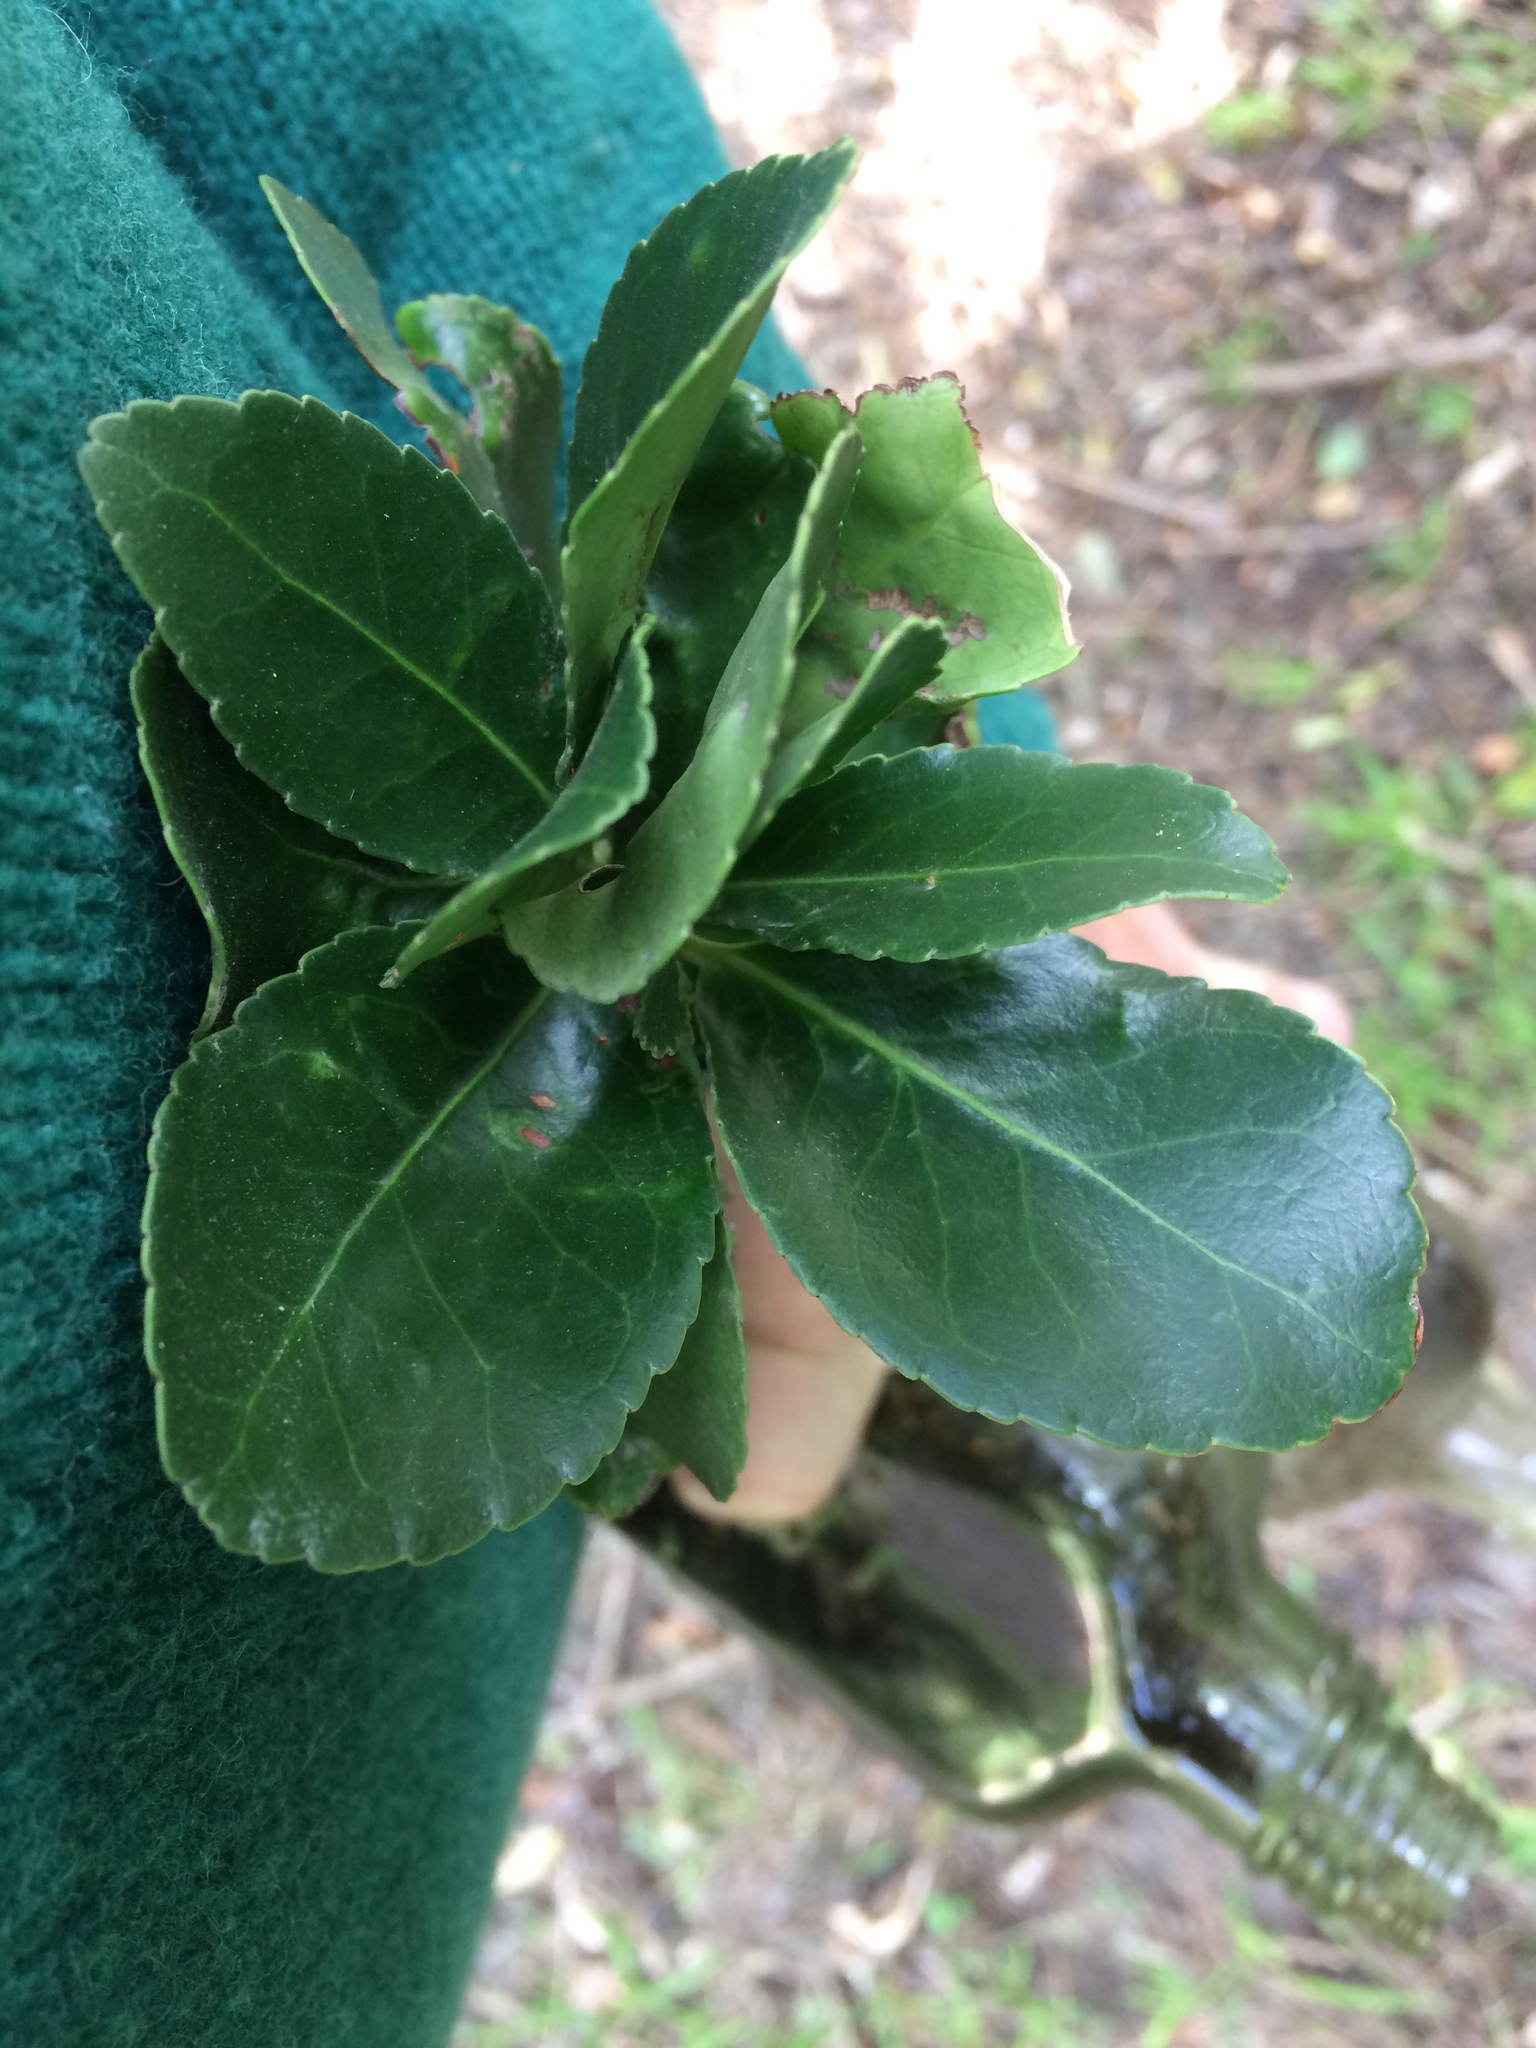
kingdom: Plantae
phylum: Tracheophyta
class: Magnoliopsida
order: Celastrales
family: Celastraceae
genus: Euonymus
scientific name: Euonymus japonicus
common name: Japanese spindletree
